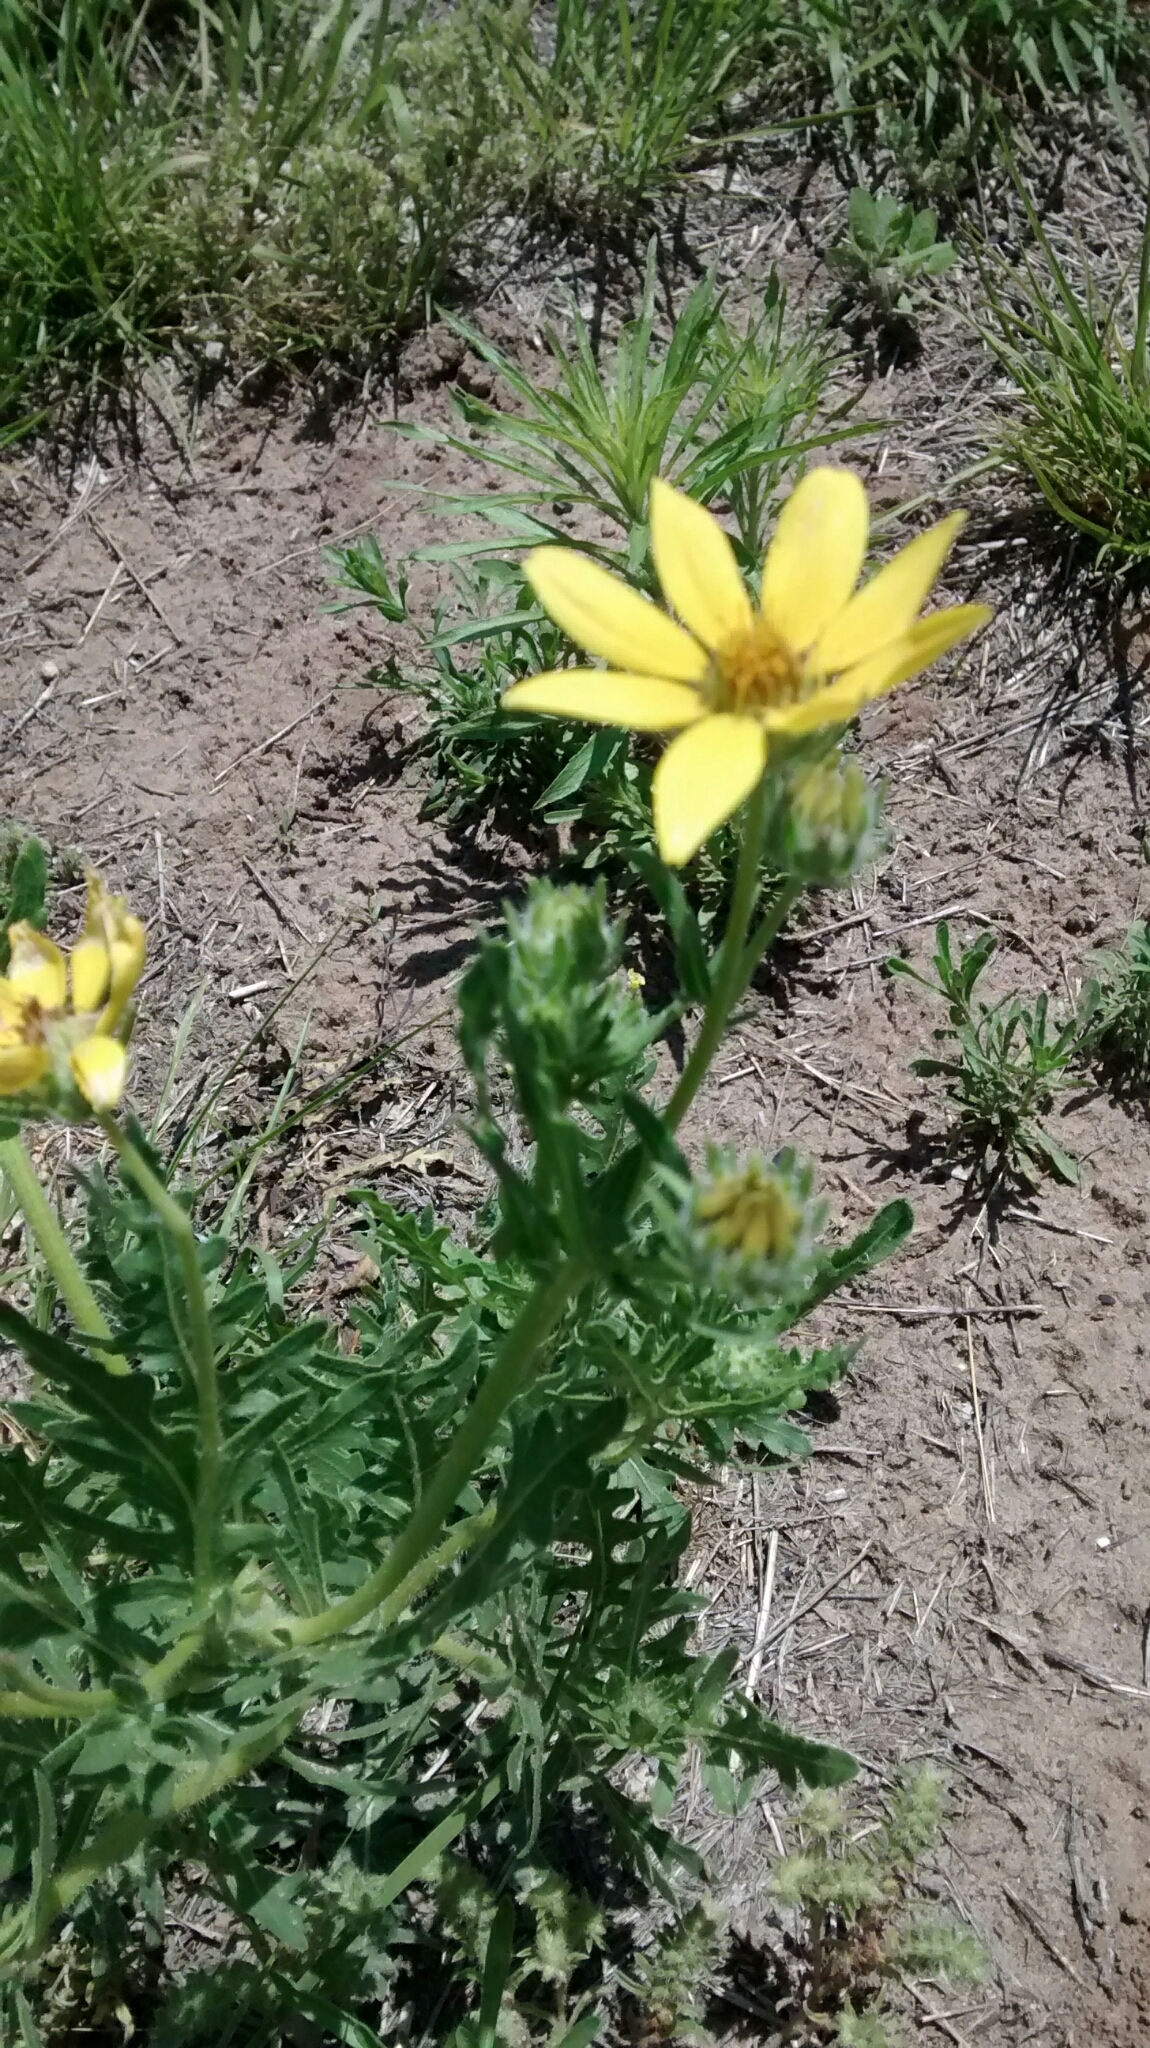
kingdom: Plantae
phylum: Tracheophyta
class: Magnoliopsida
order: Asterales
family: Asteraceae
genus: Engelmannia
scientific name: Engelmannia peristenia
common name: Engelmann's daisy
